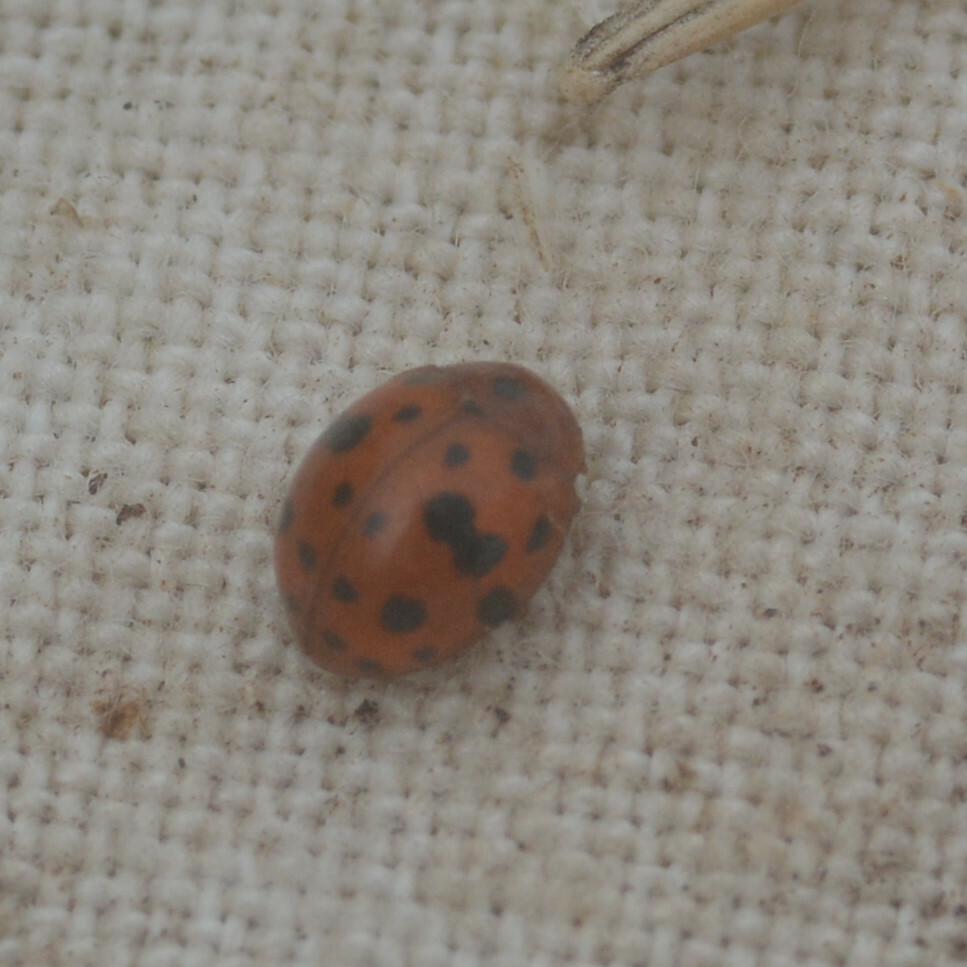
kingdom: Animalia
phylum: Arthropoda
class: Insecta
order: Coleoptera
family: Coccinellidae
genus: Subcoccinella
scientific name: Subcoccinella vigintiquatuorpunctata
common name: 24-spot ladybird
